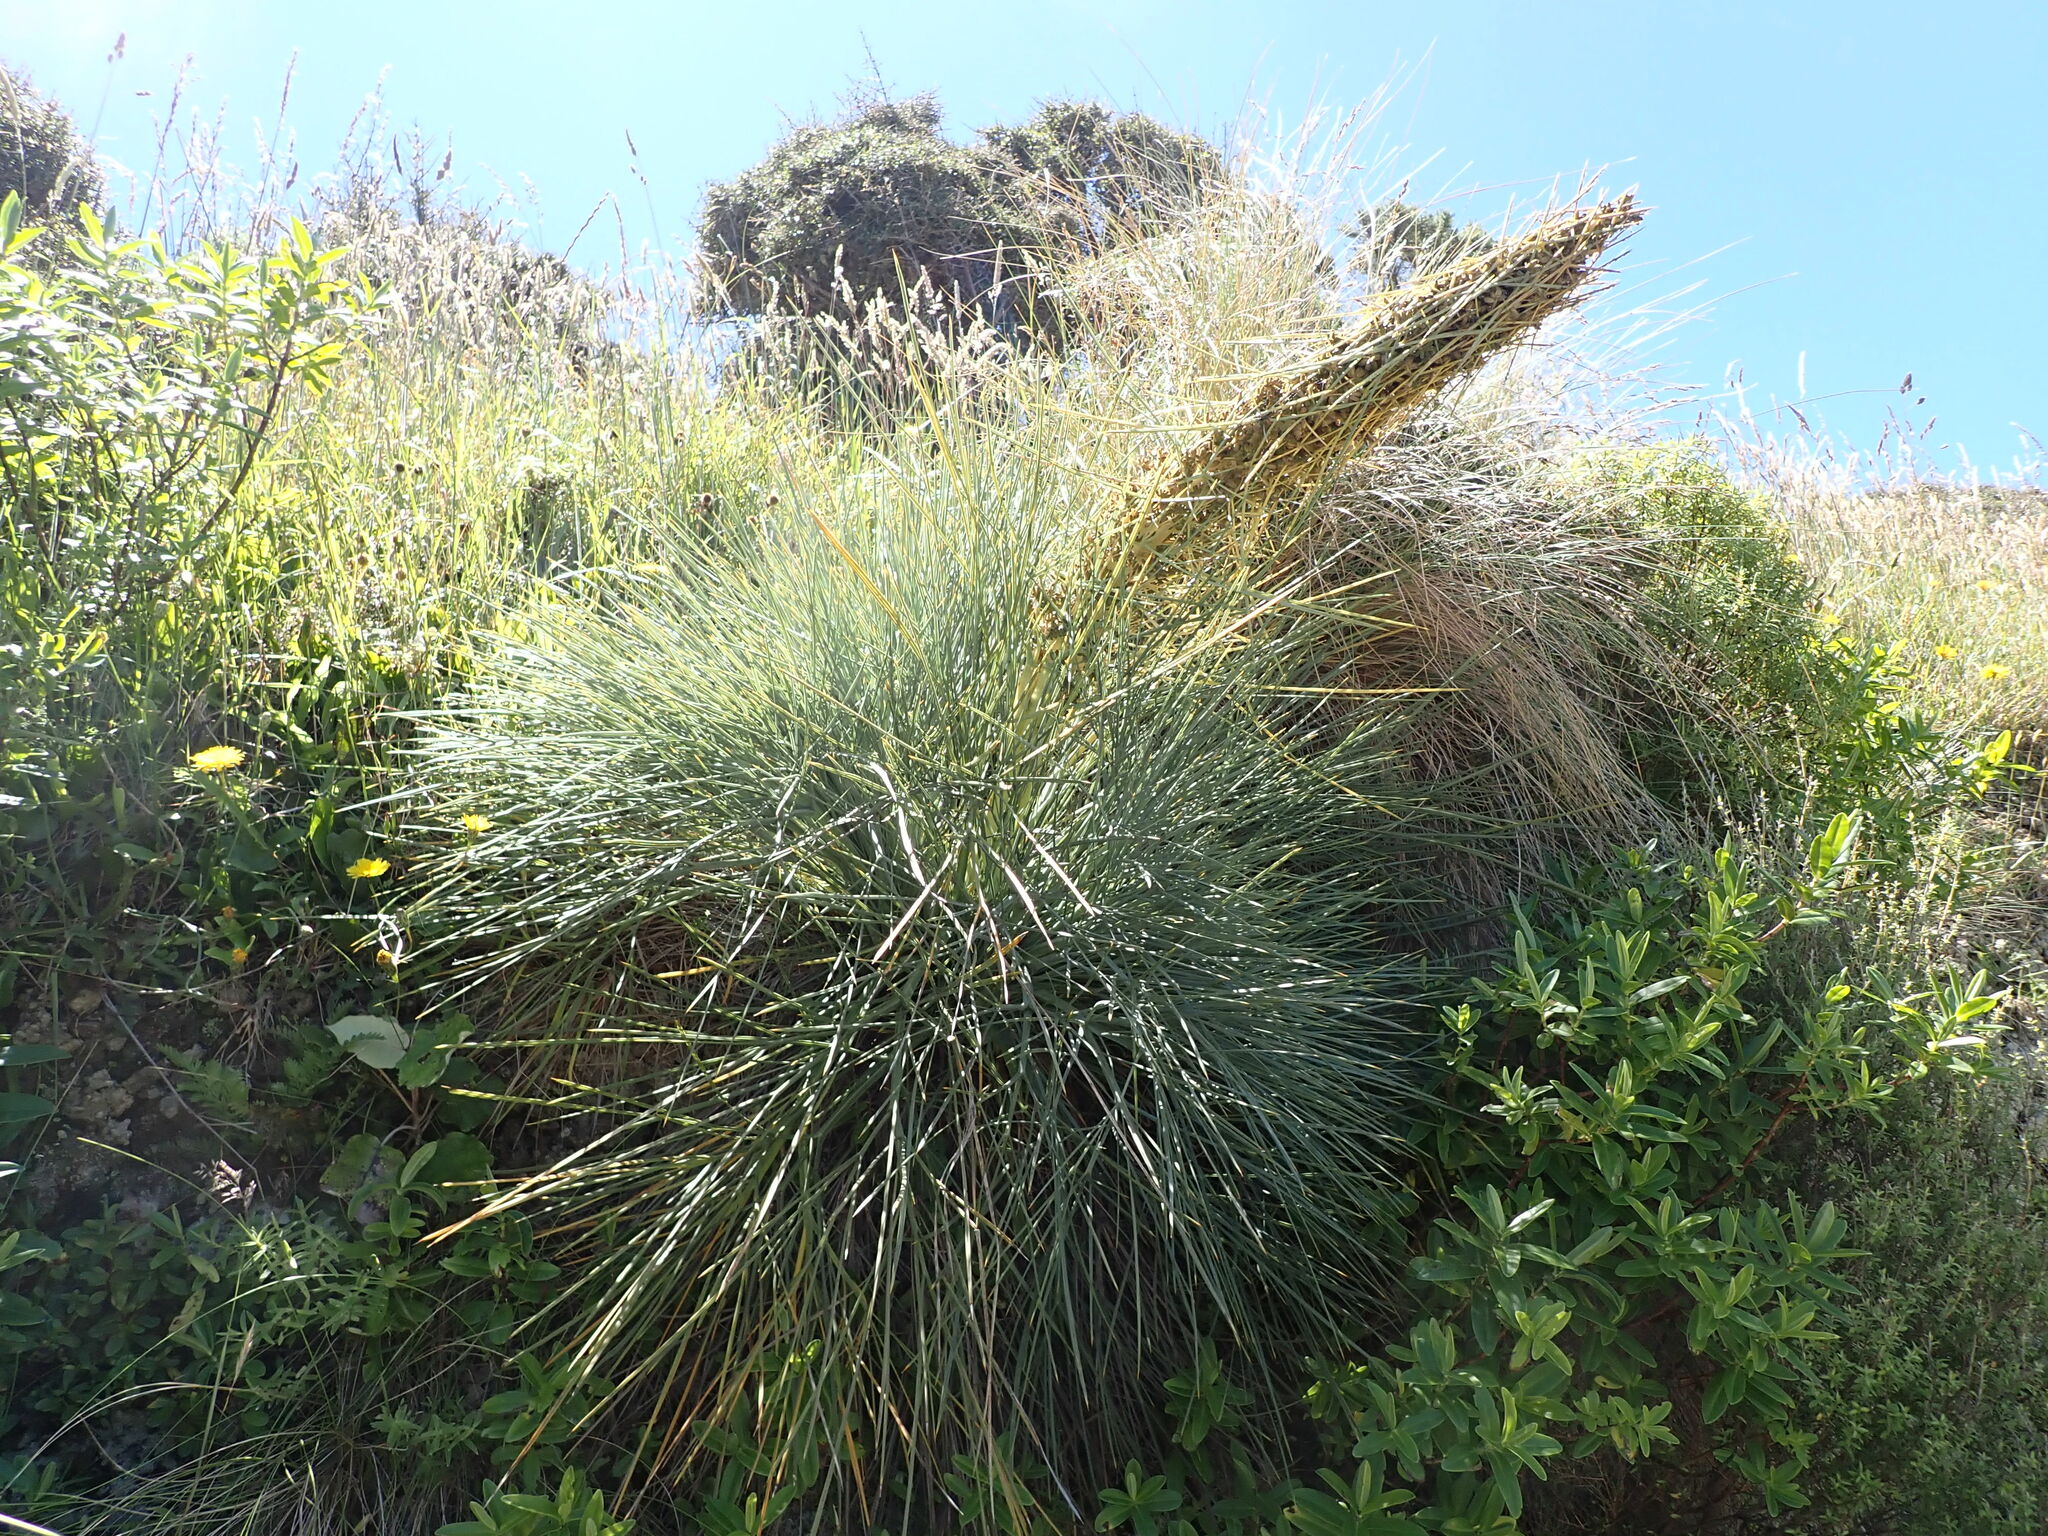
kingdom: Plantae
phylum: Tracheophyta
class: Magnoliopsida
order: Apiales
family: Apiaceae
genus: Aciphylla
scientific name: Aciphylla squarrosa
